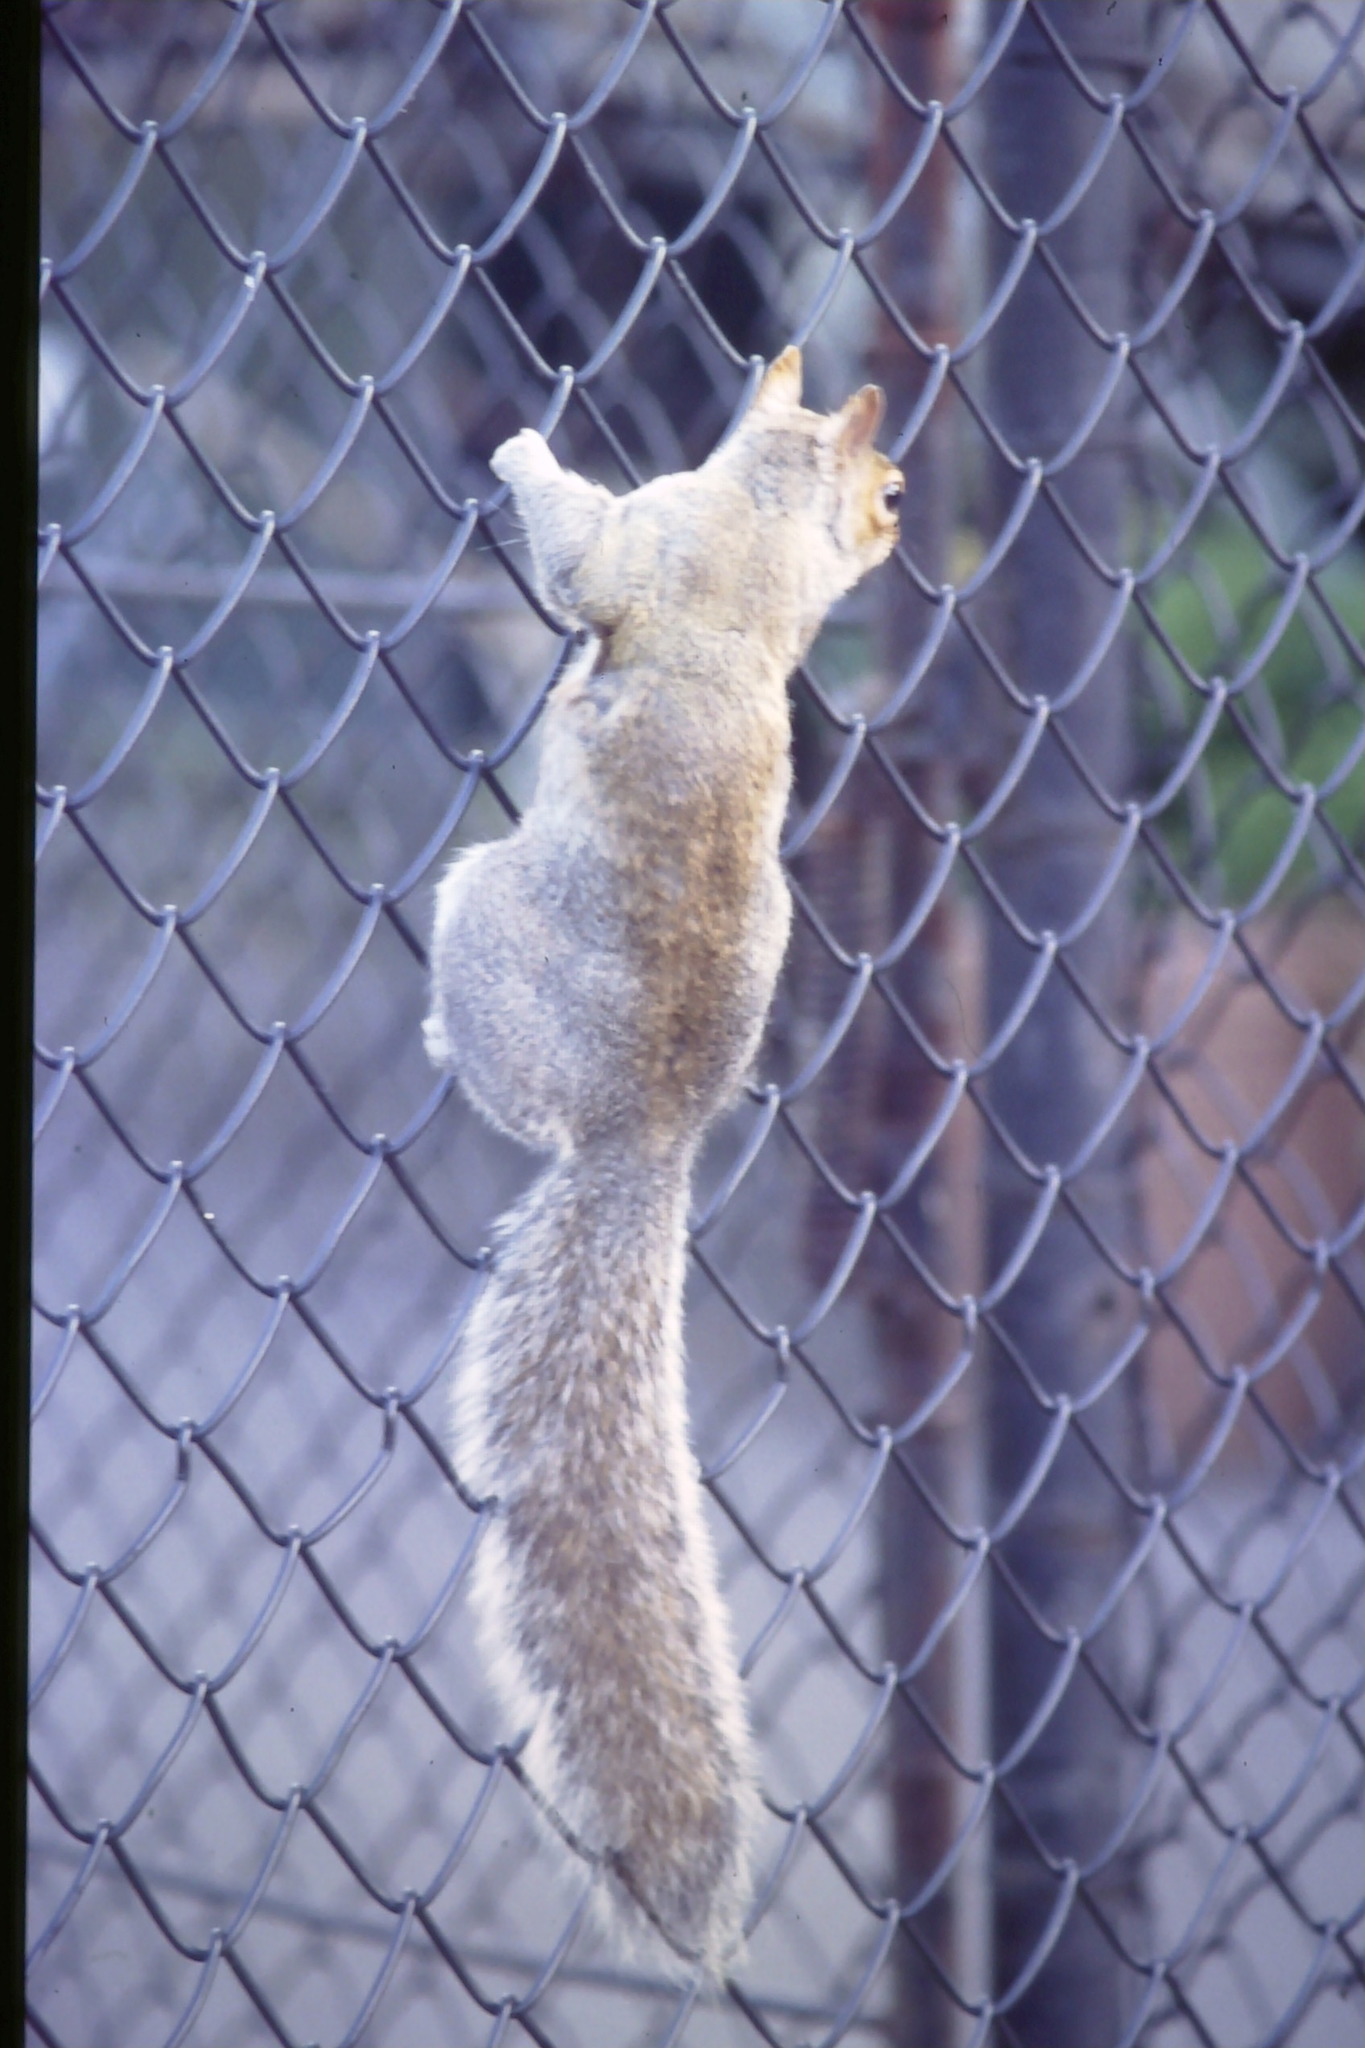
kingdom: Animalia
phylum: Chordata
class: Mammalia
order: Rodentia
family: Sciuridae
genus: Sciurus
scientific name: Sciurus carolinensis
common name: Eastern gray squirrel
